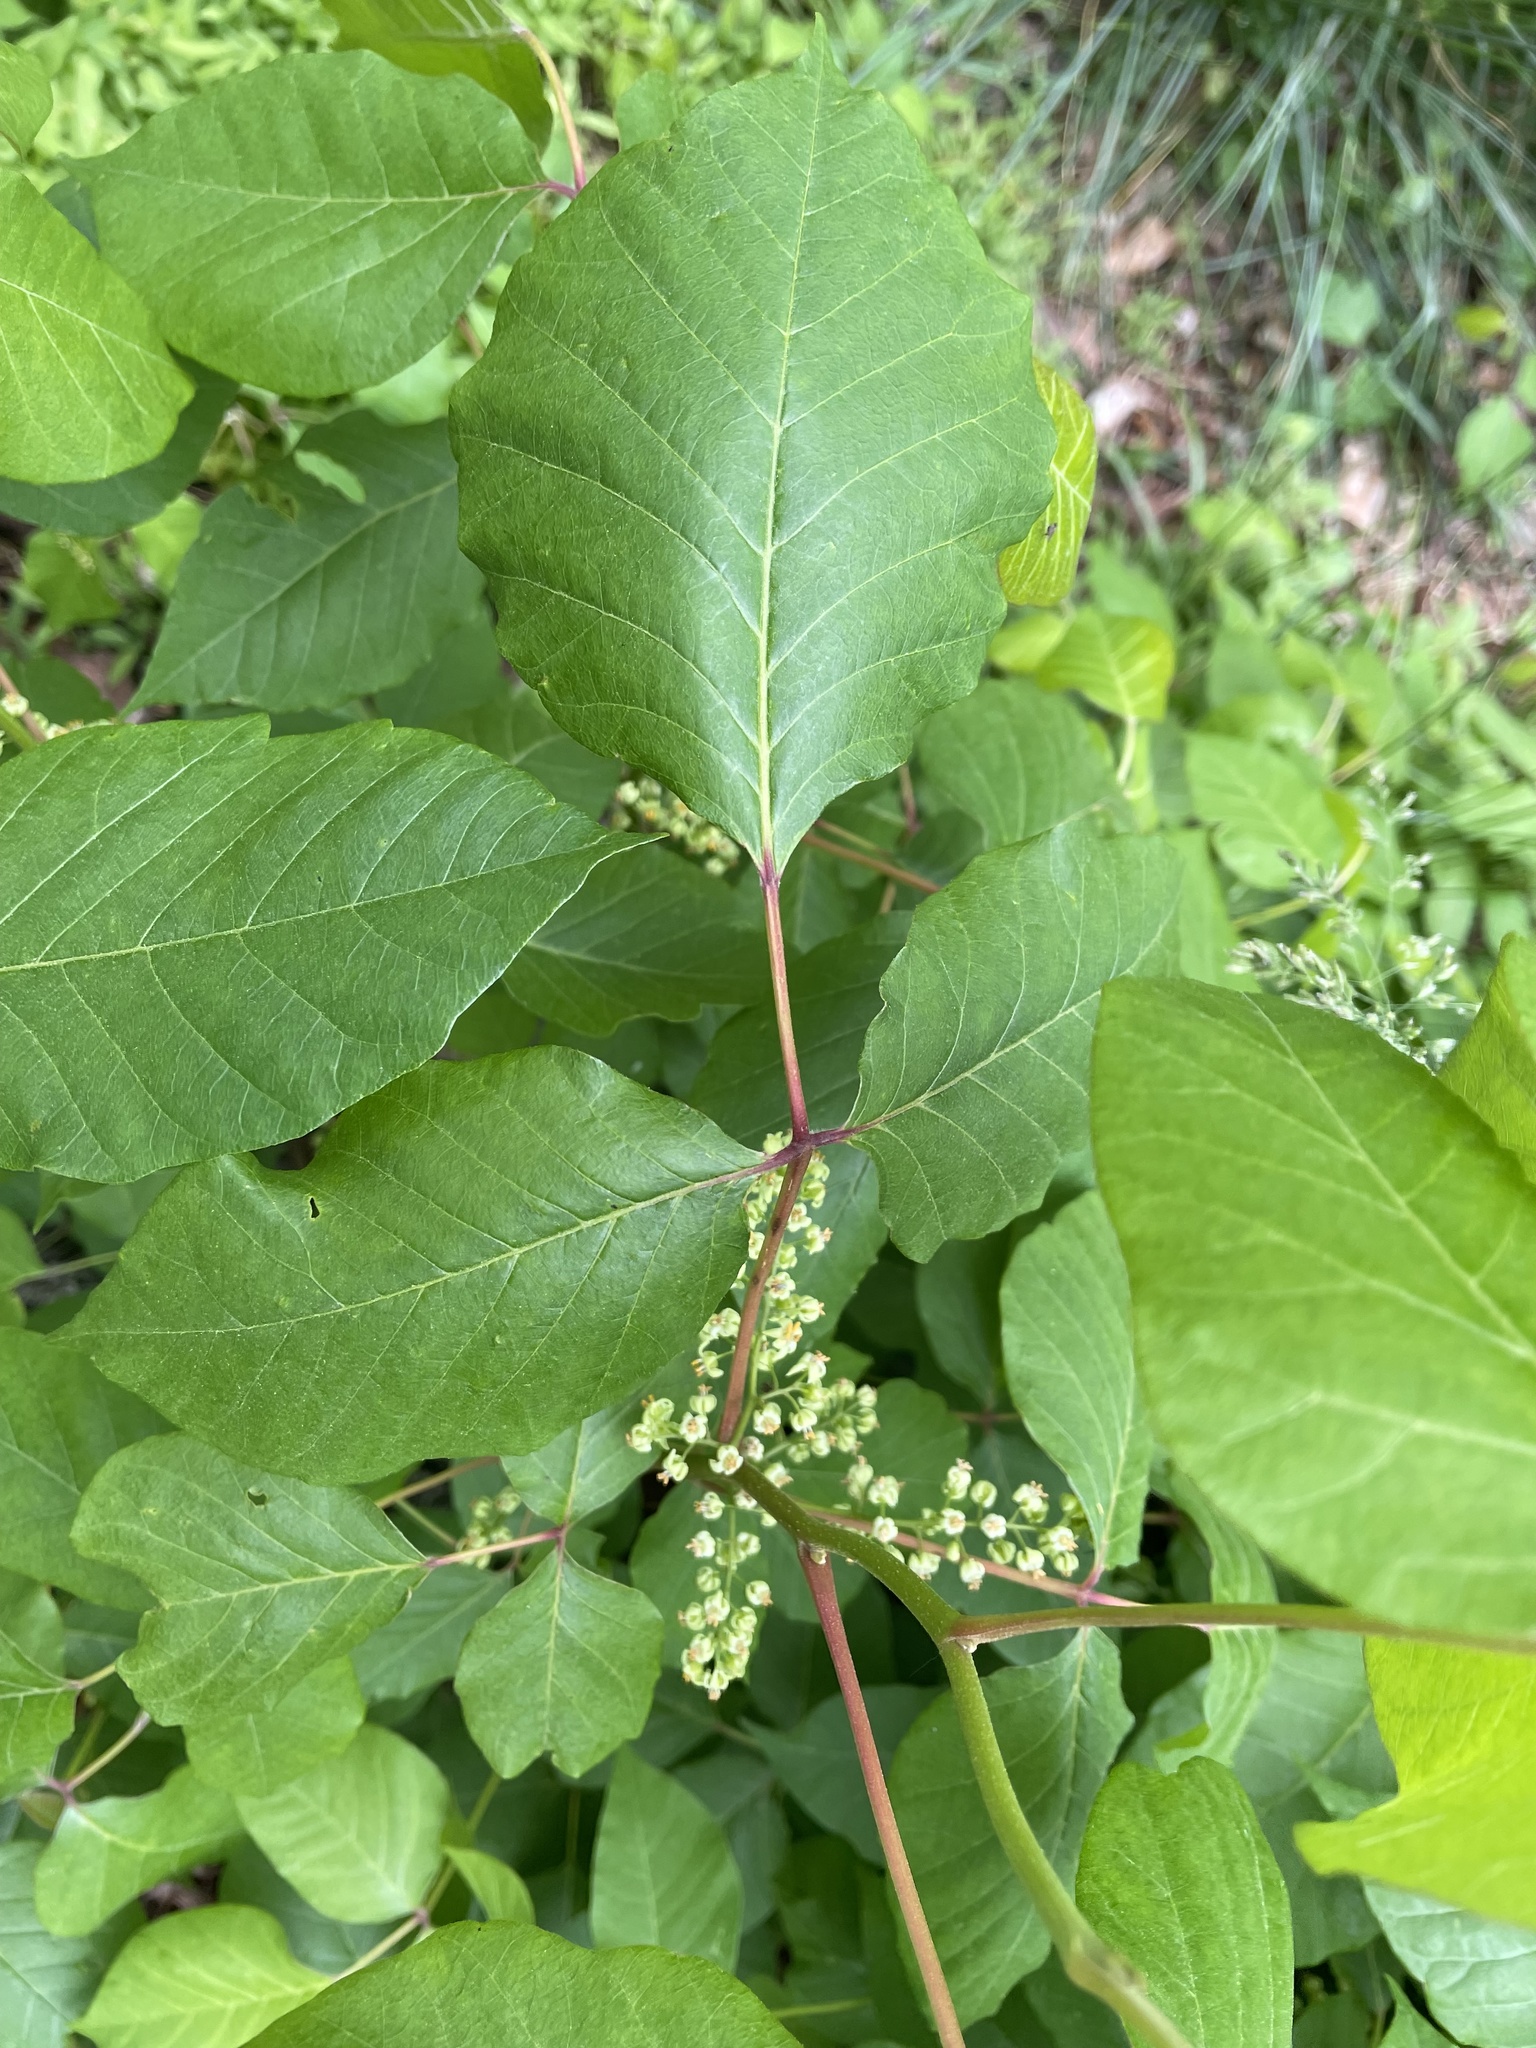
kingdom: Plantae
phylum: Tracheophyta
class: Magnoliopsida
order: Sapindales
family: Anacardiaceae
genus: Toxicodendron
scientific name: Toxicodendron radicans
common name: Poison ivy
